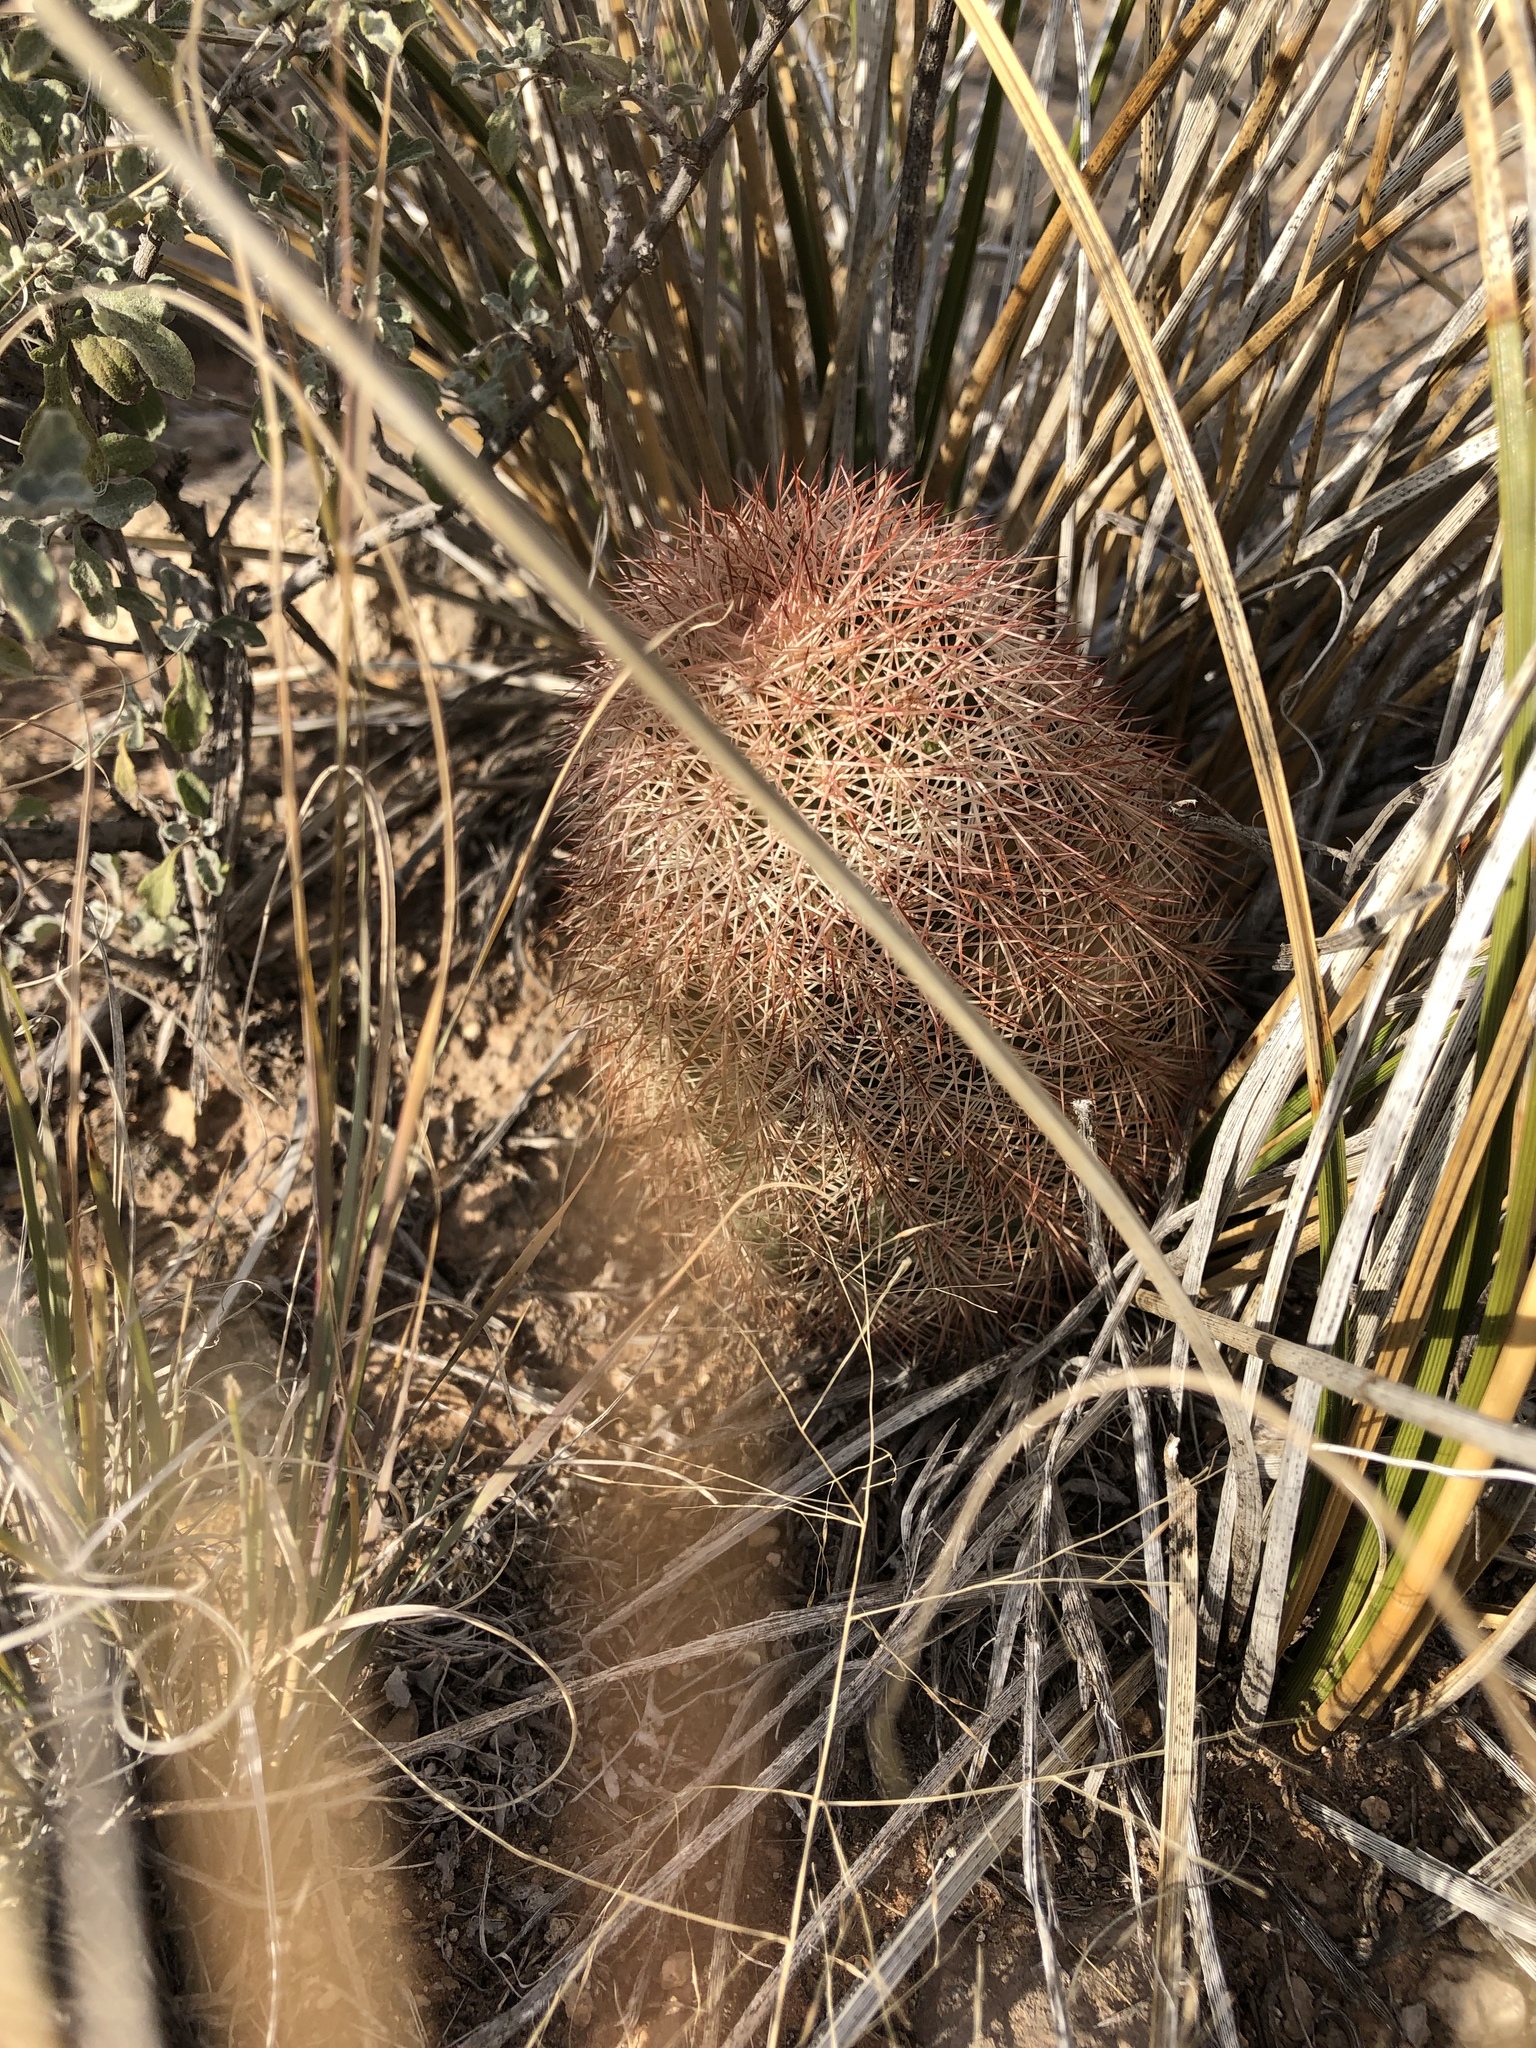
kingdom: Plantae
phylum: Tracheophyta
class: Magnoliopsida
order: Caryophyllales
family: Cactaceae
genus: Echinocereus
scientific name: Echinocereus dasyacanthus
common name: Spiny hedgehog cactus
